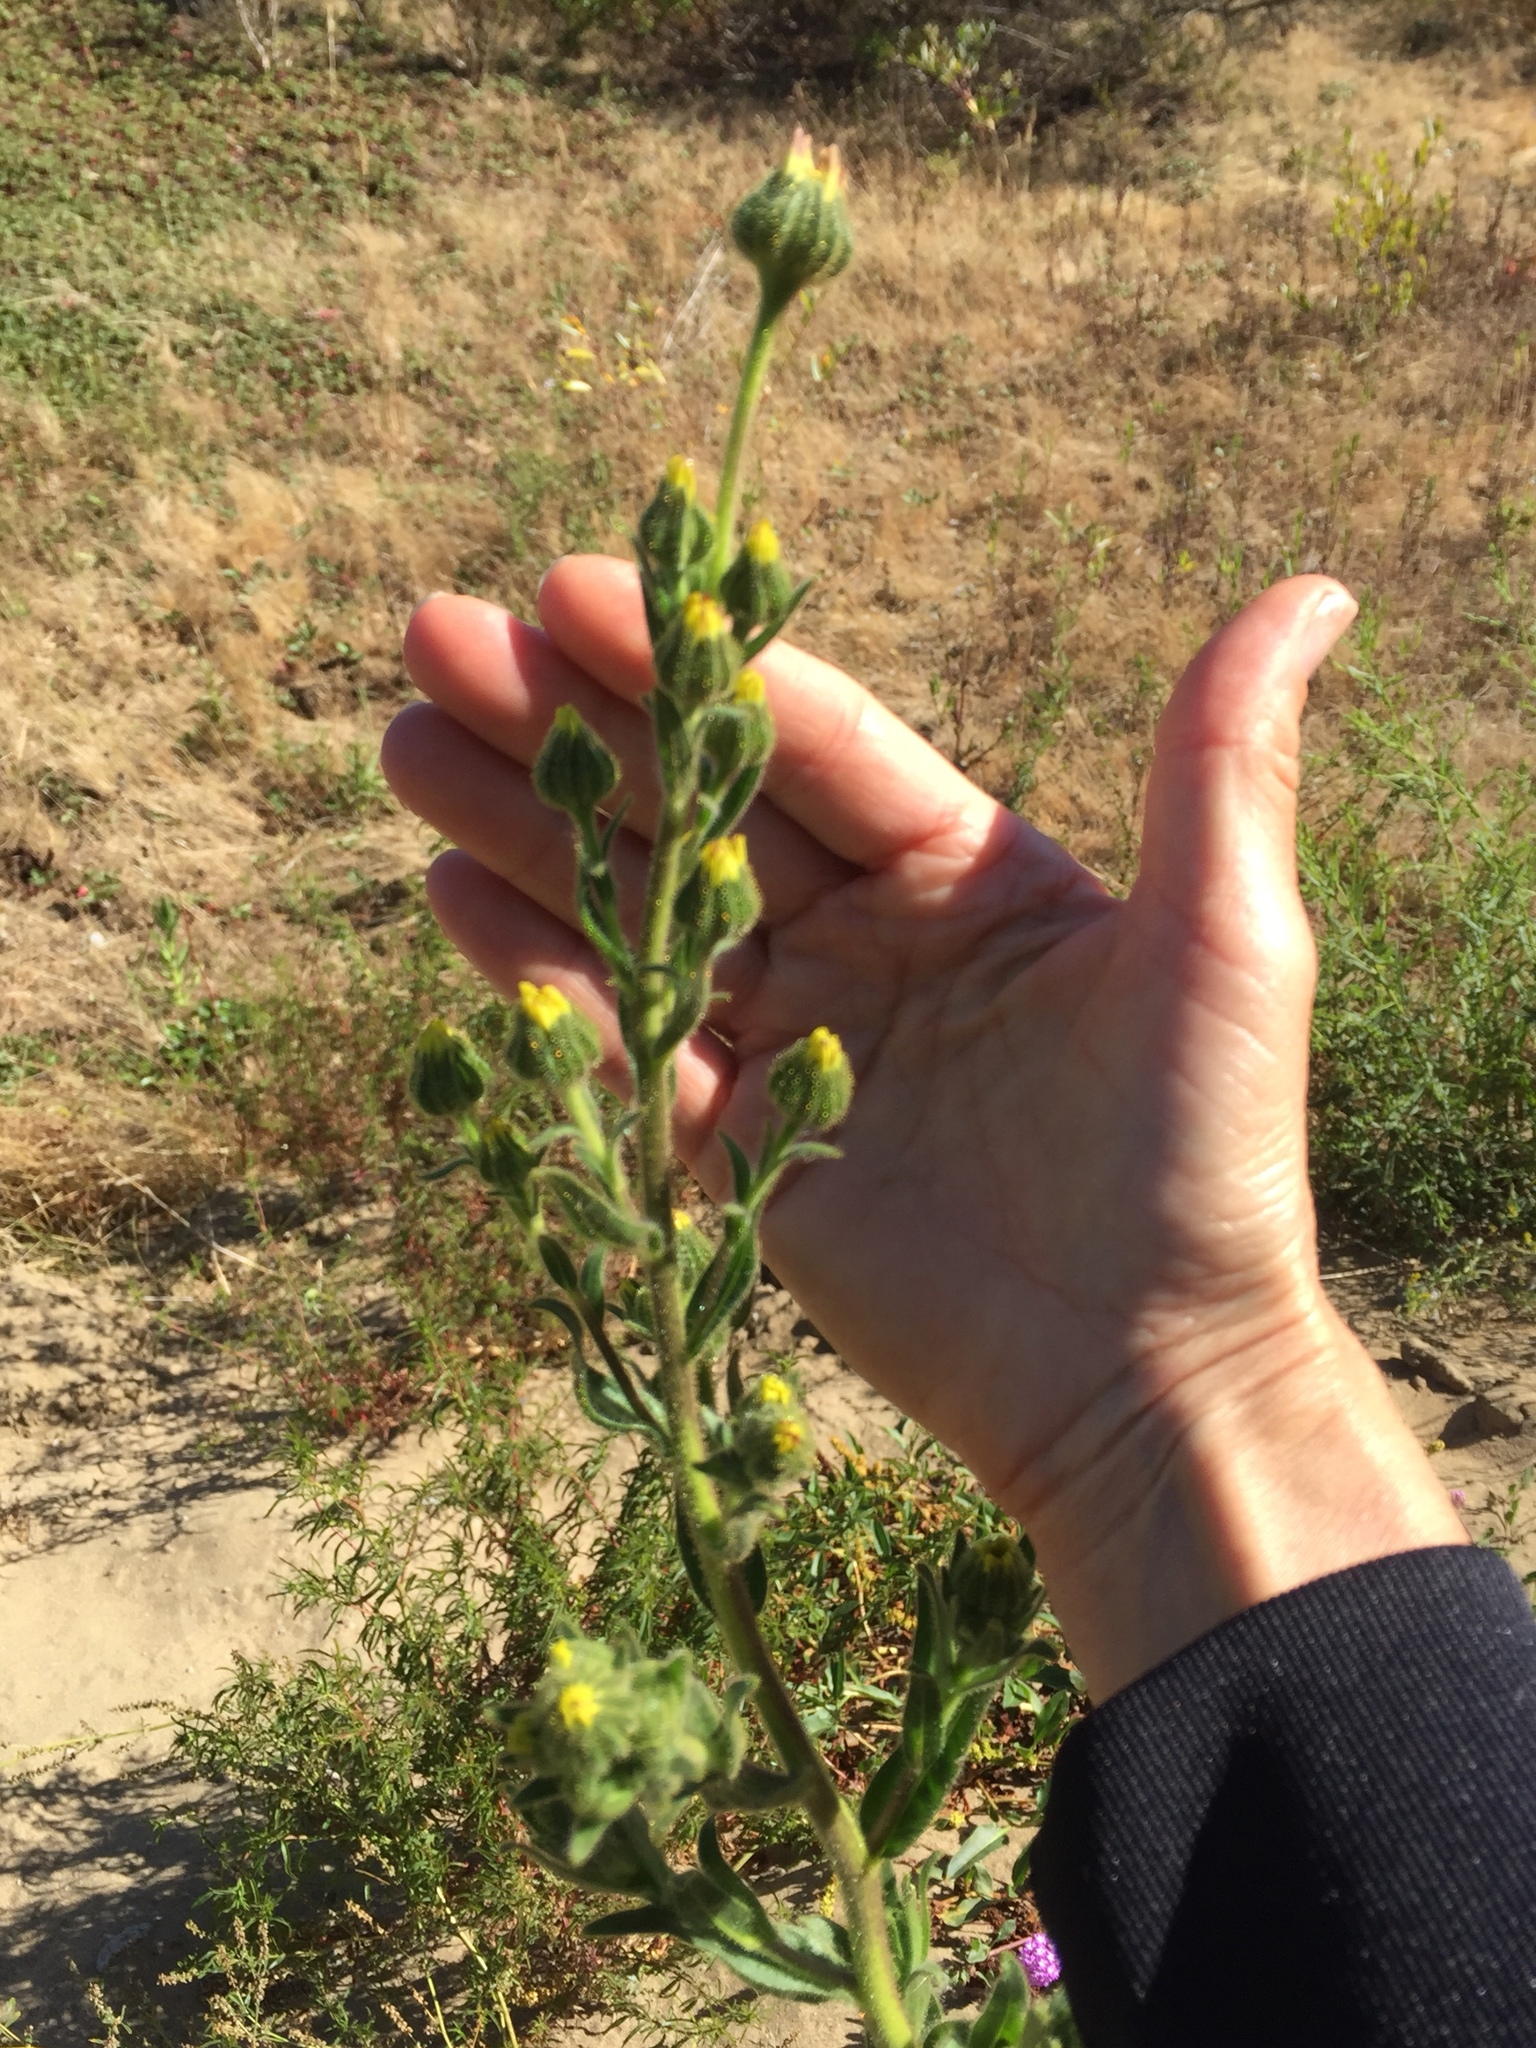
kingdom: Plantae
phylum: Tracheophyta
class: Magnoliopsida
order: Asterales
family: Asteraceae
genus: Madia
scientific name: Madia sativa
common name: Coast tarweed
